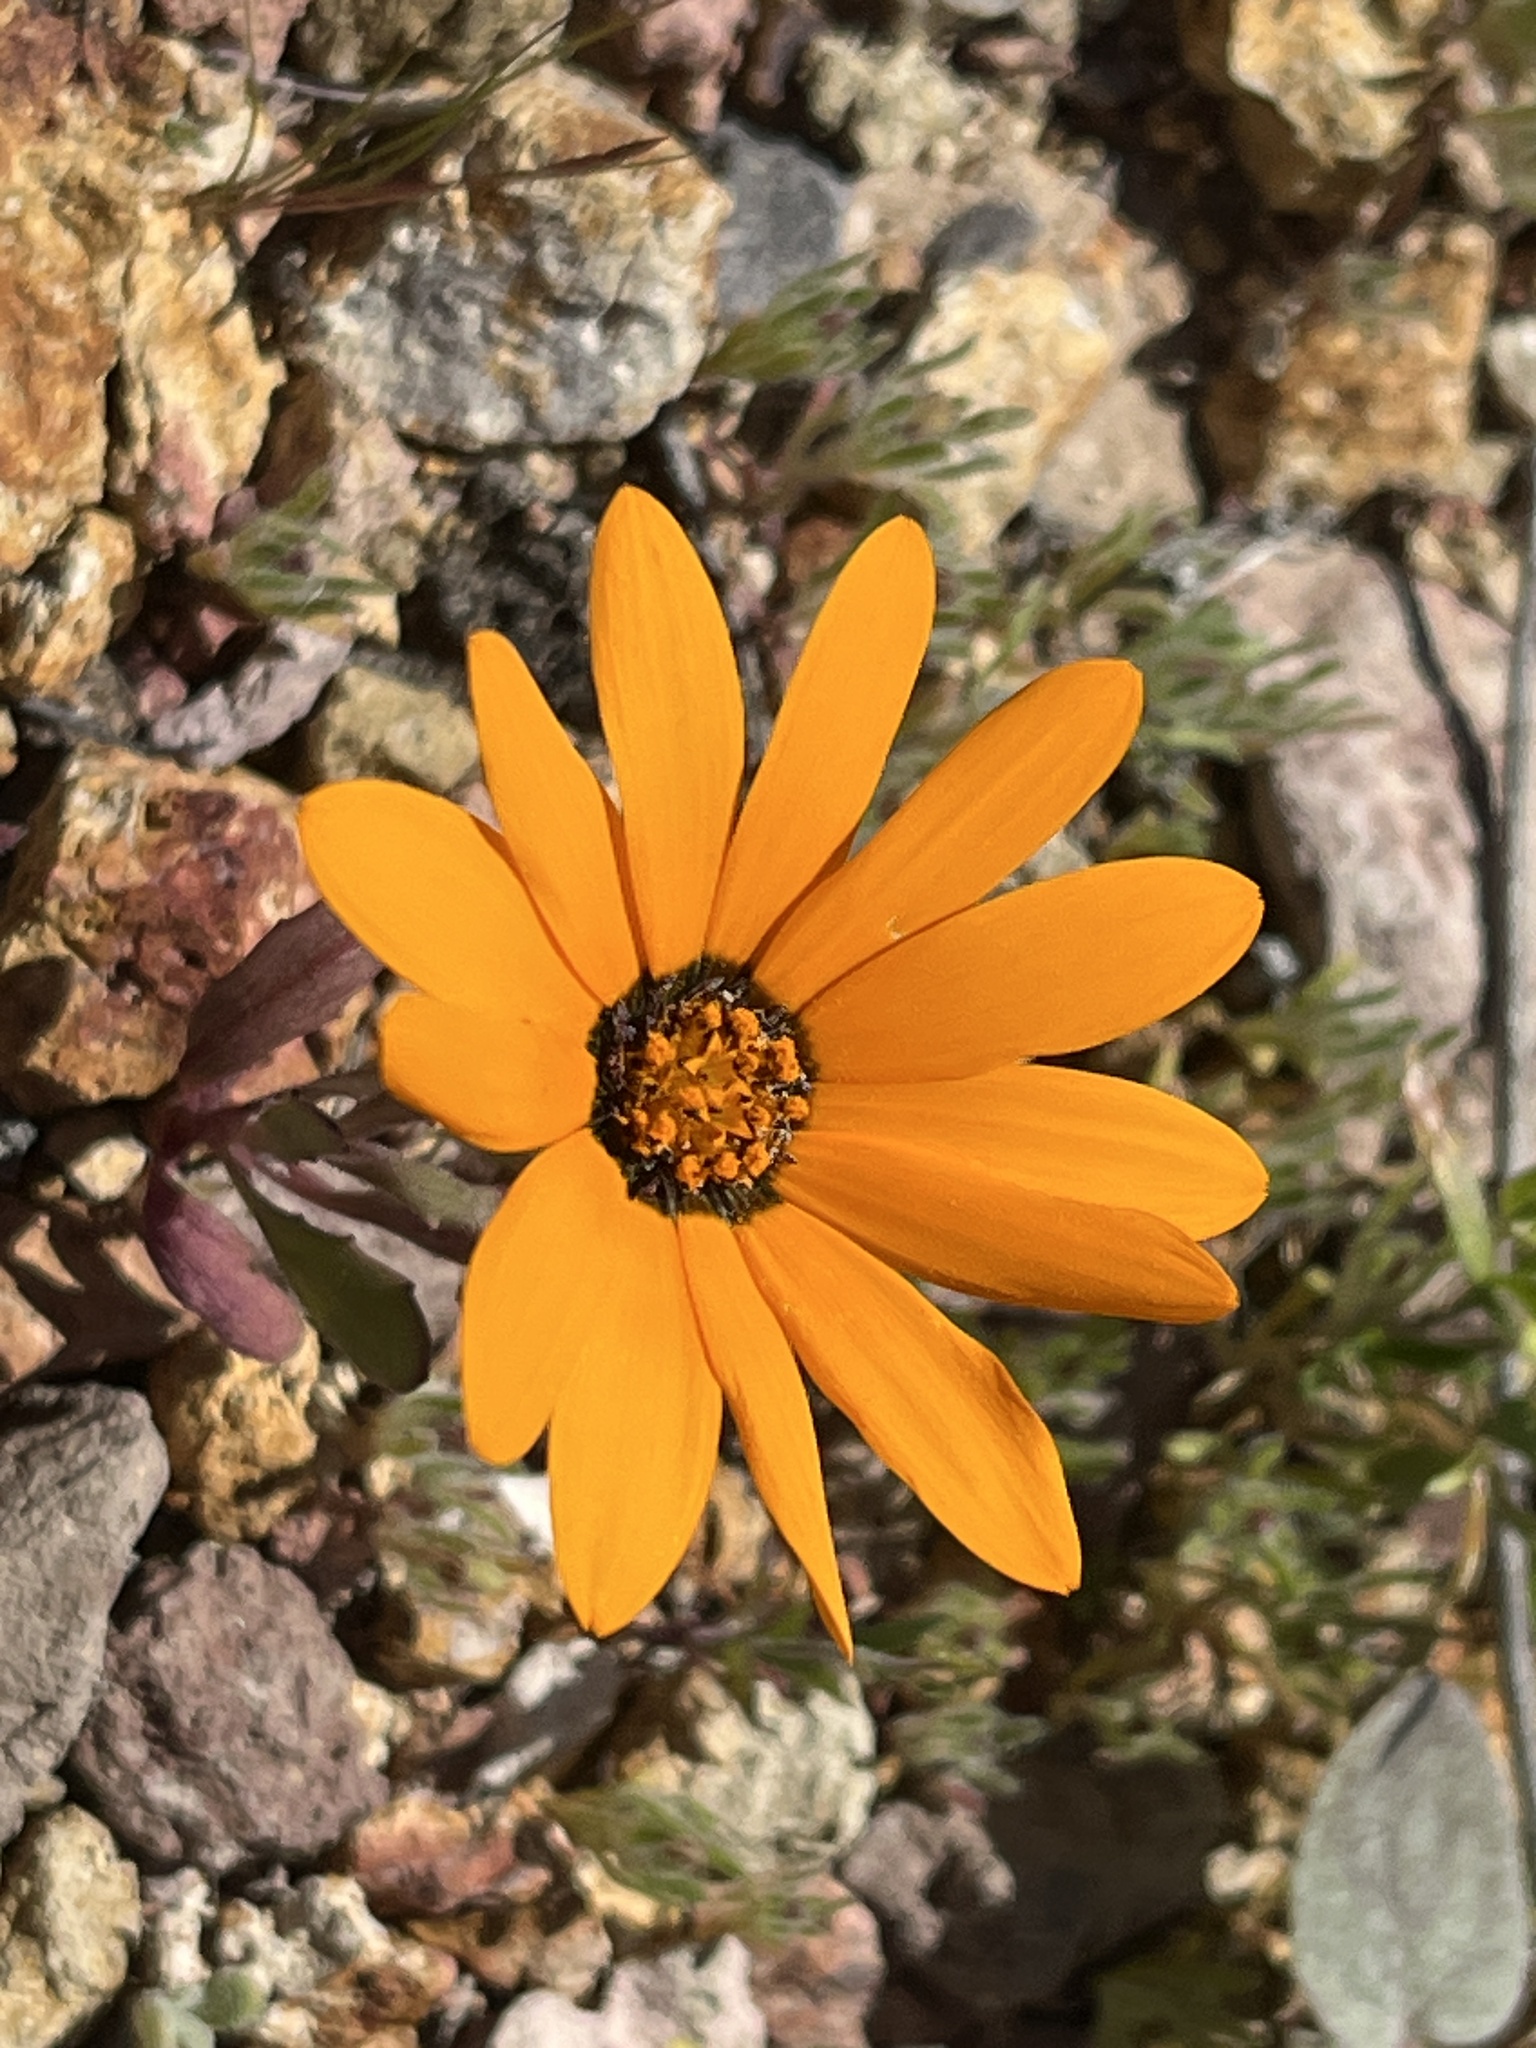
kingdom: Plantae
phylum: Tracheophyta
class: Magnoliopsida
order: Asterales
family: Asteraceae
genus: Dimorphotheca
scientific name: Dimorphotheca sinuata
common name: Glandular cape marigold
